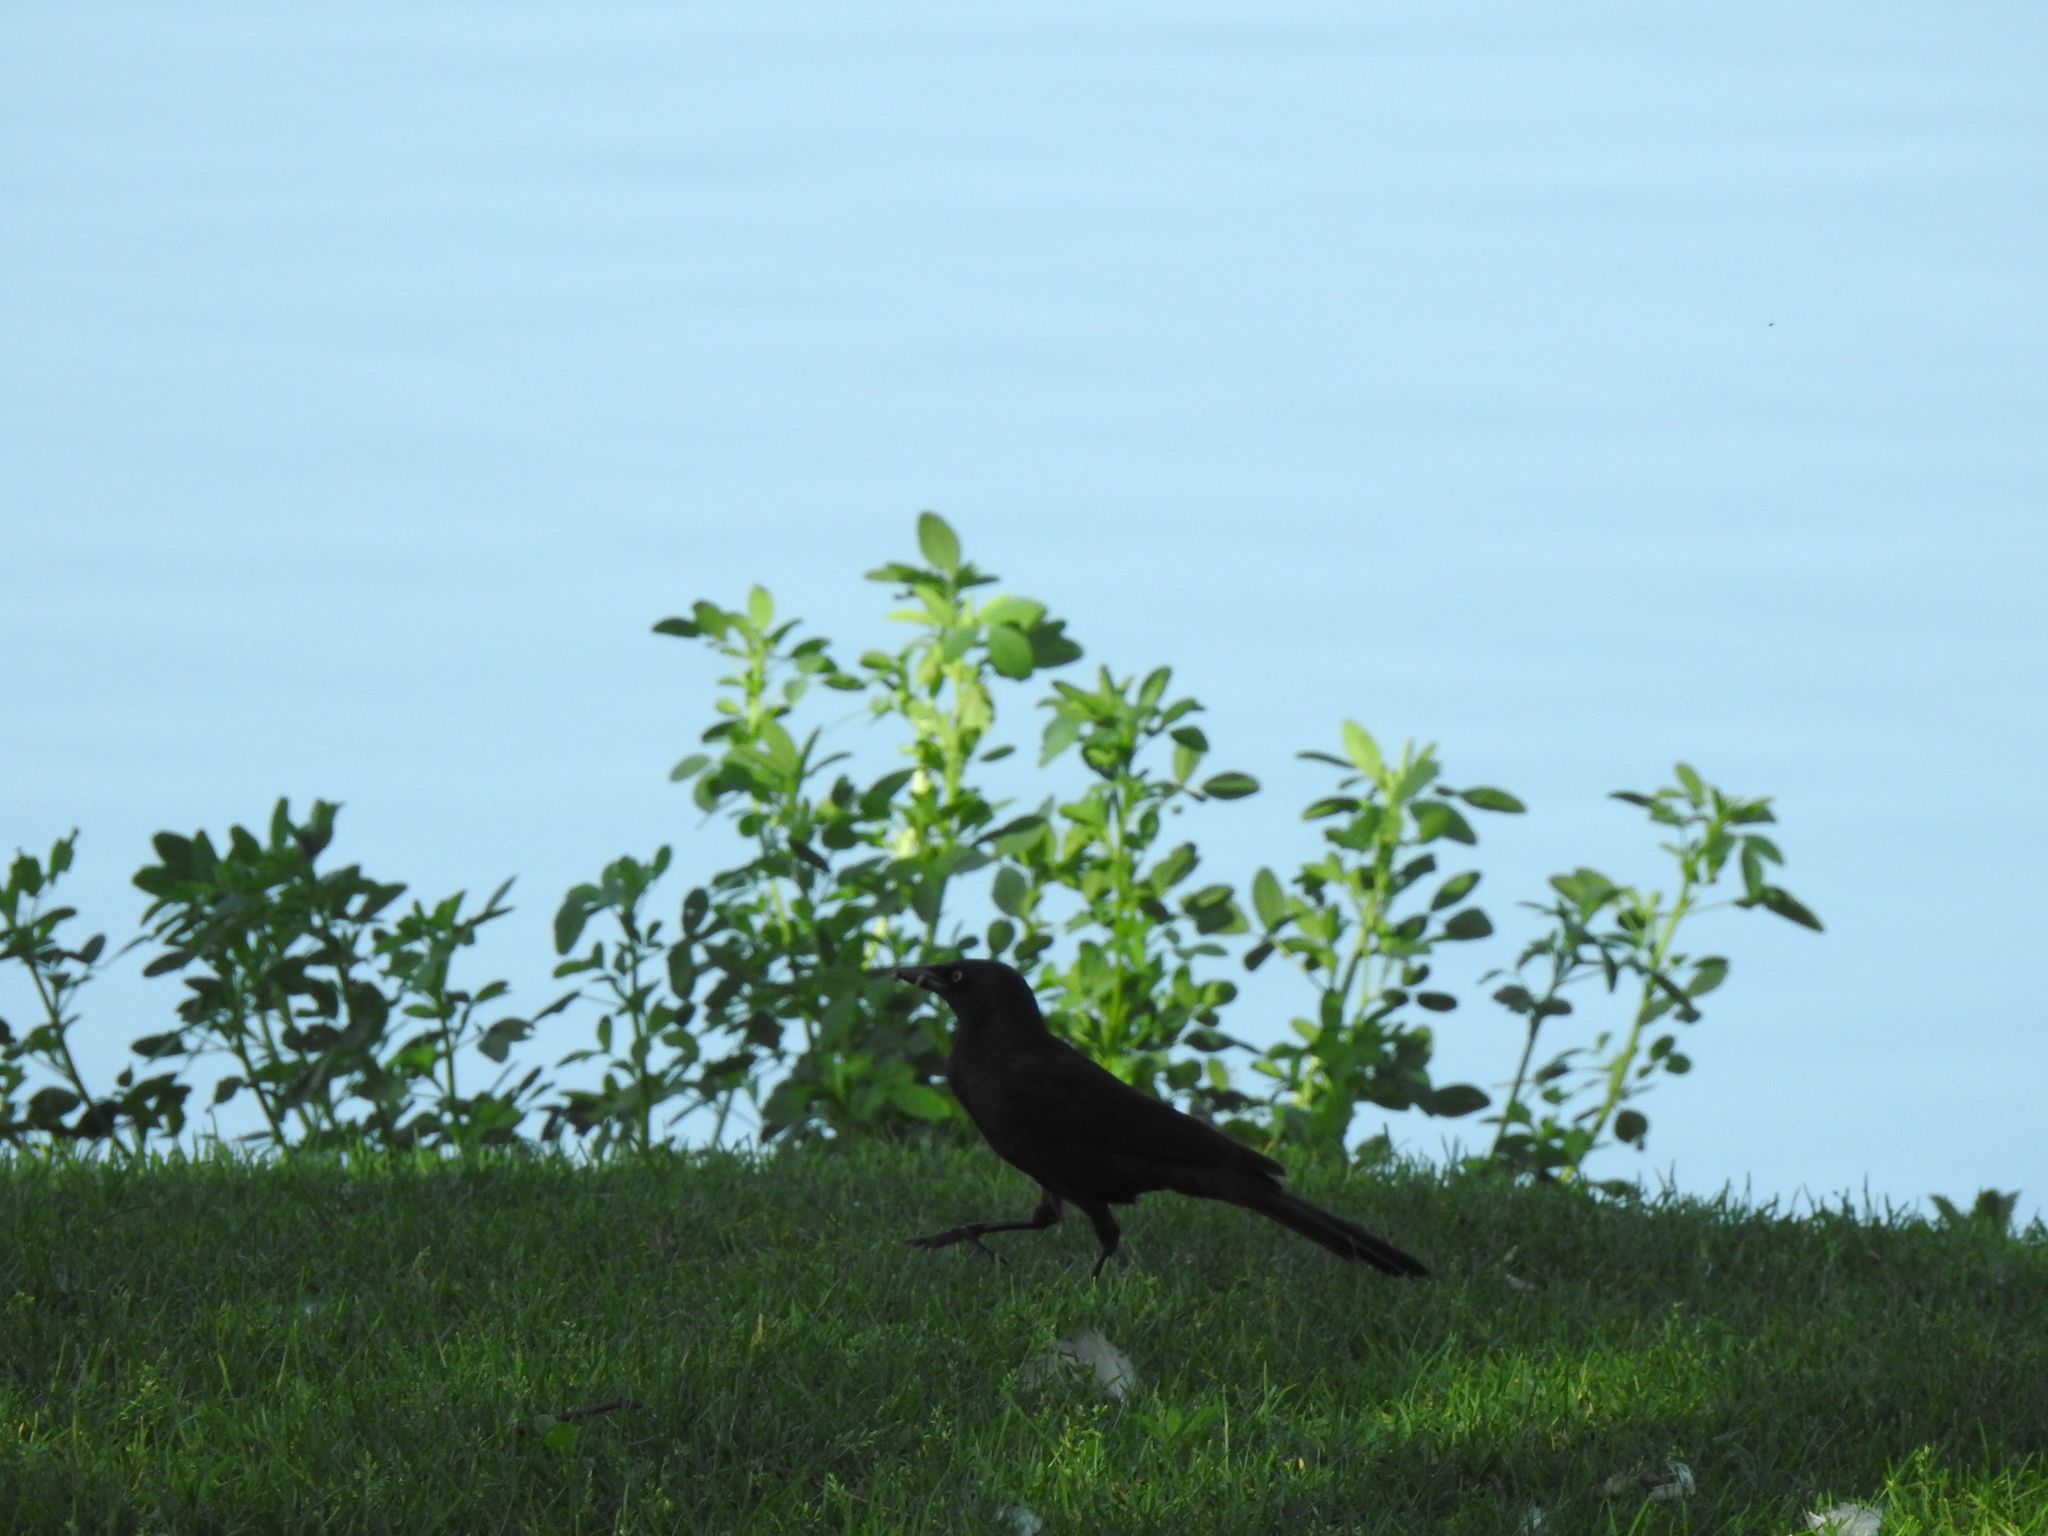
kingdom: Animalia
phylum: Chordata
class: Aves
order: Passeriformes
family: Icteridae
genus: Quiscalus
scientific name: Quiscalus quiscula
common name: Common grackle
